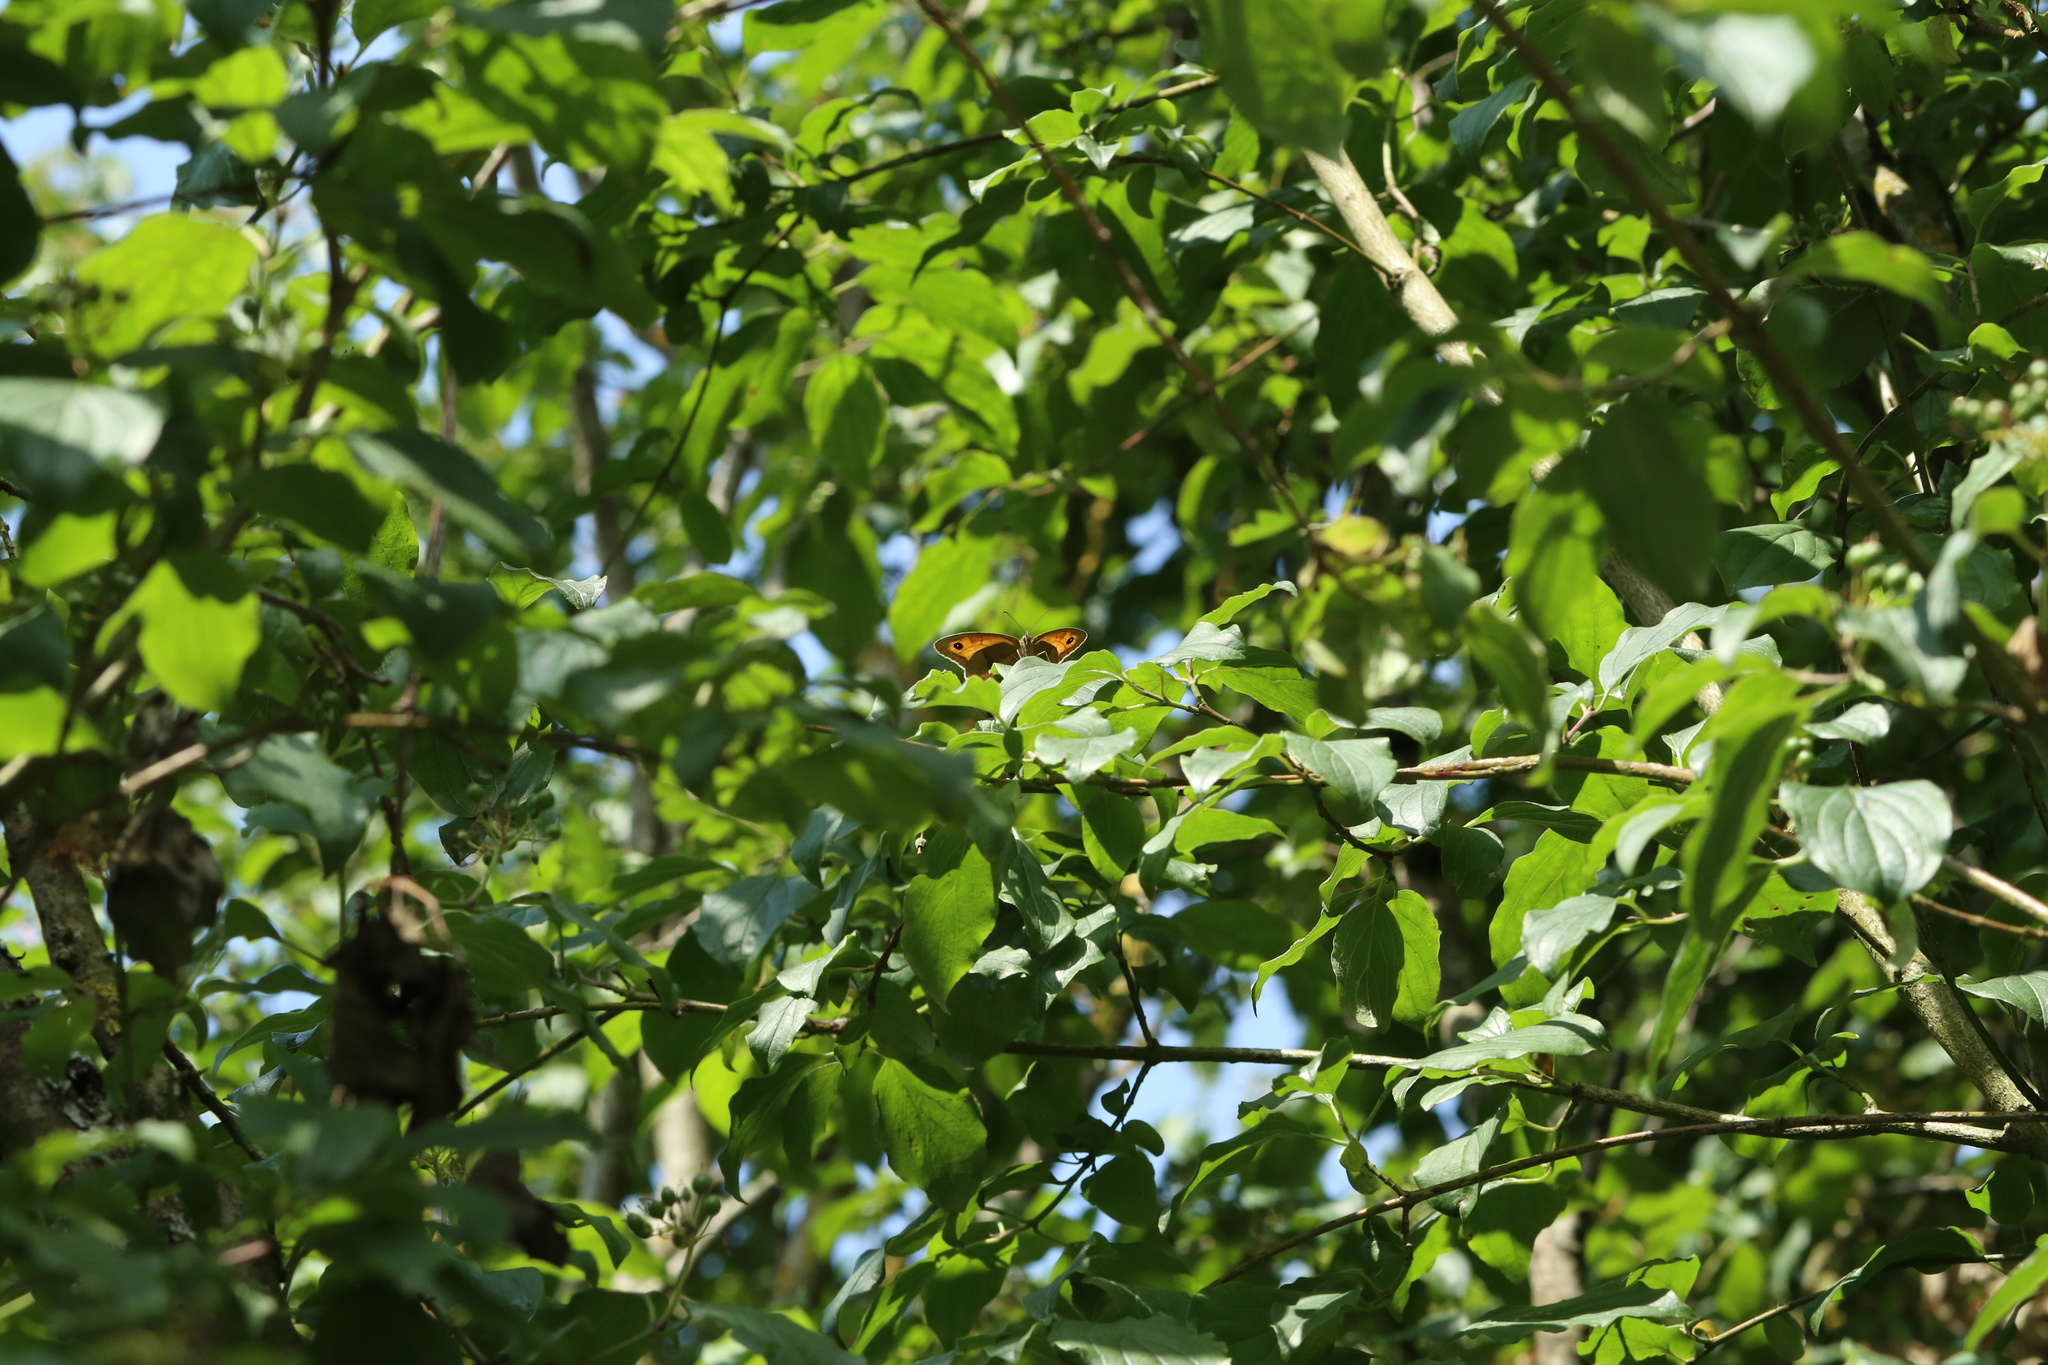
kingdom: Animalia
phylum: Arthropoda
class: Insecta
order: Lepidoptera
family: Nymphalidae
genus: Maniola
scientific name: Maniola jurtina
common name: Meadow brown
